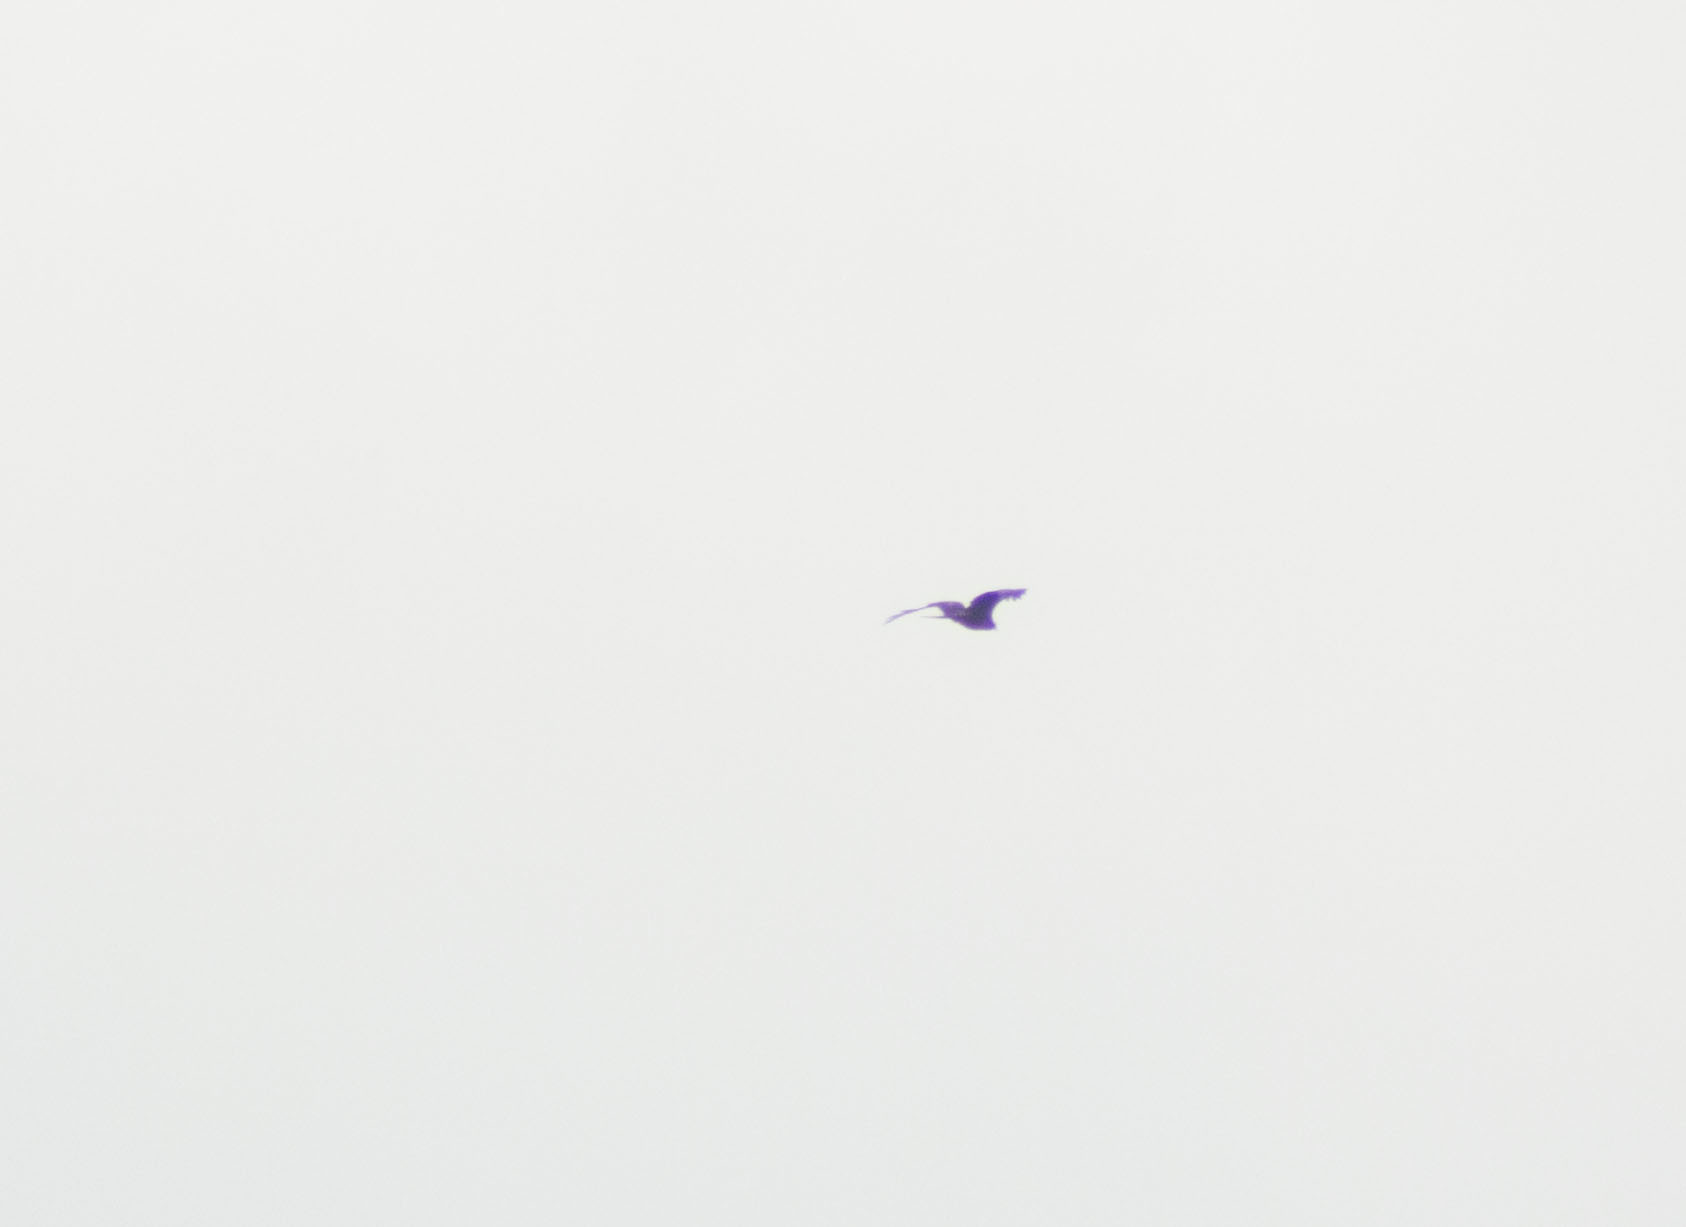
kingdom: Animalia
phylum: Chordata
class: Aves
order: Accipitriformes
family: Accipitridae
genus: Milvus
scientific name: Milvus migrans
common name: Black kite
